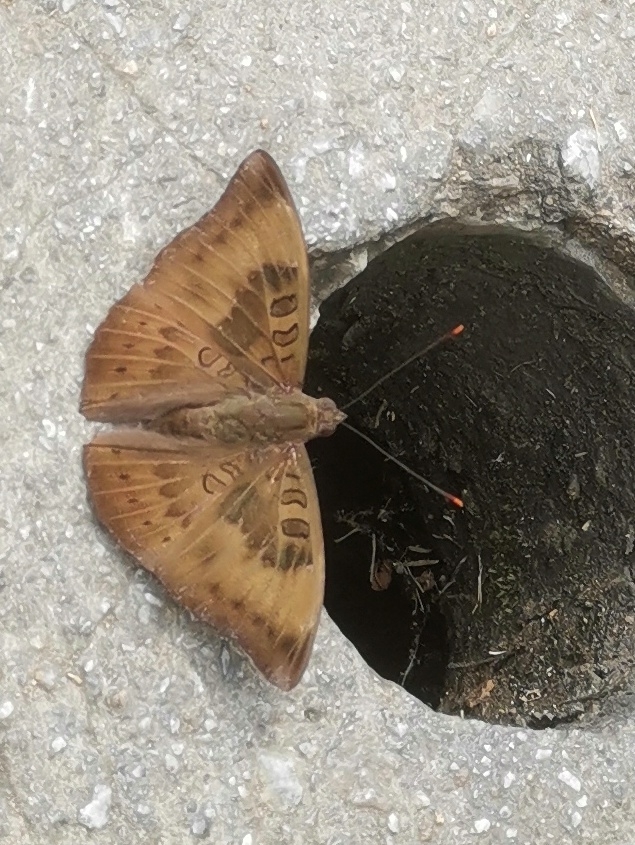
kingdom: Animalia
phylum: Arthropoda
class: Insecta
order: Lepidoptera
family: Nymphalidae
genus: Euthalia
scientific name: Euthalia aconthea
